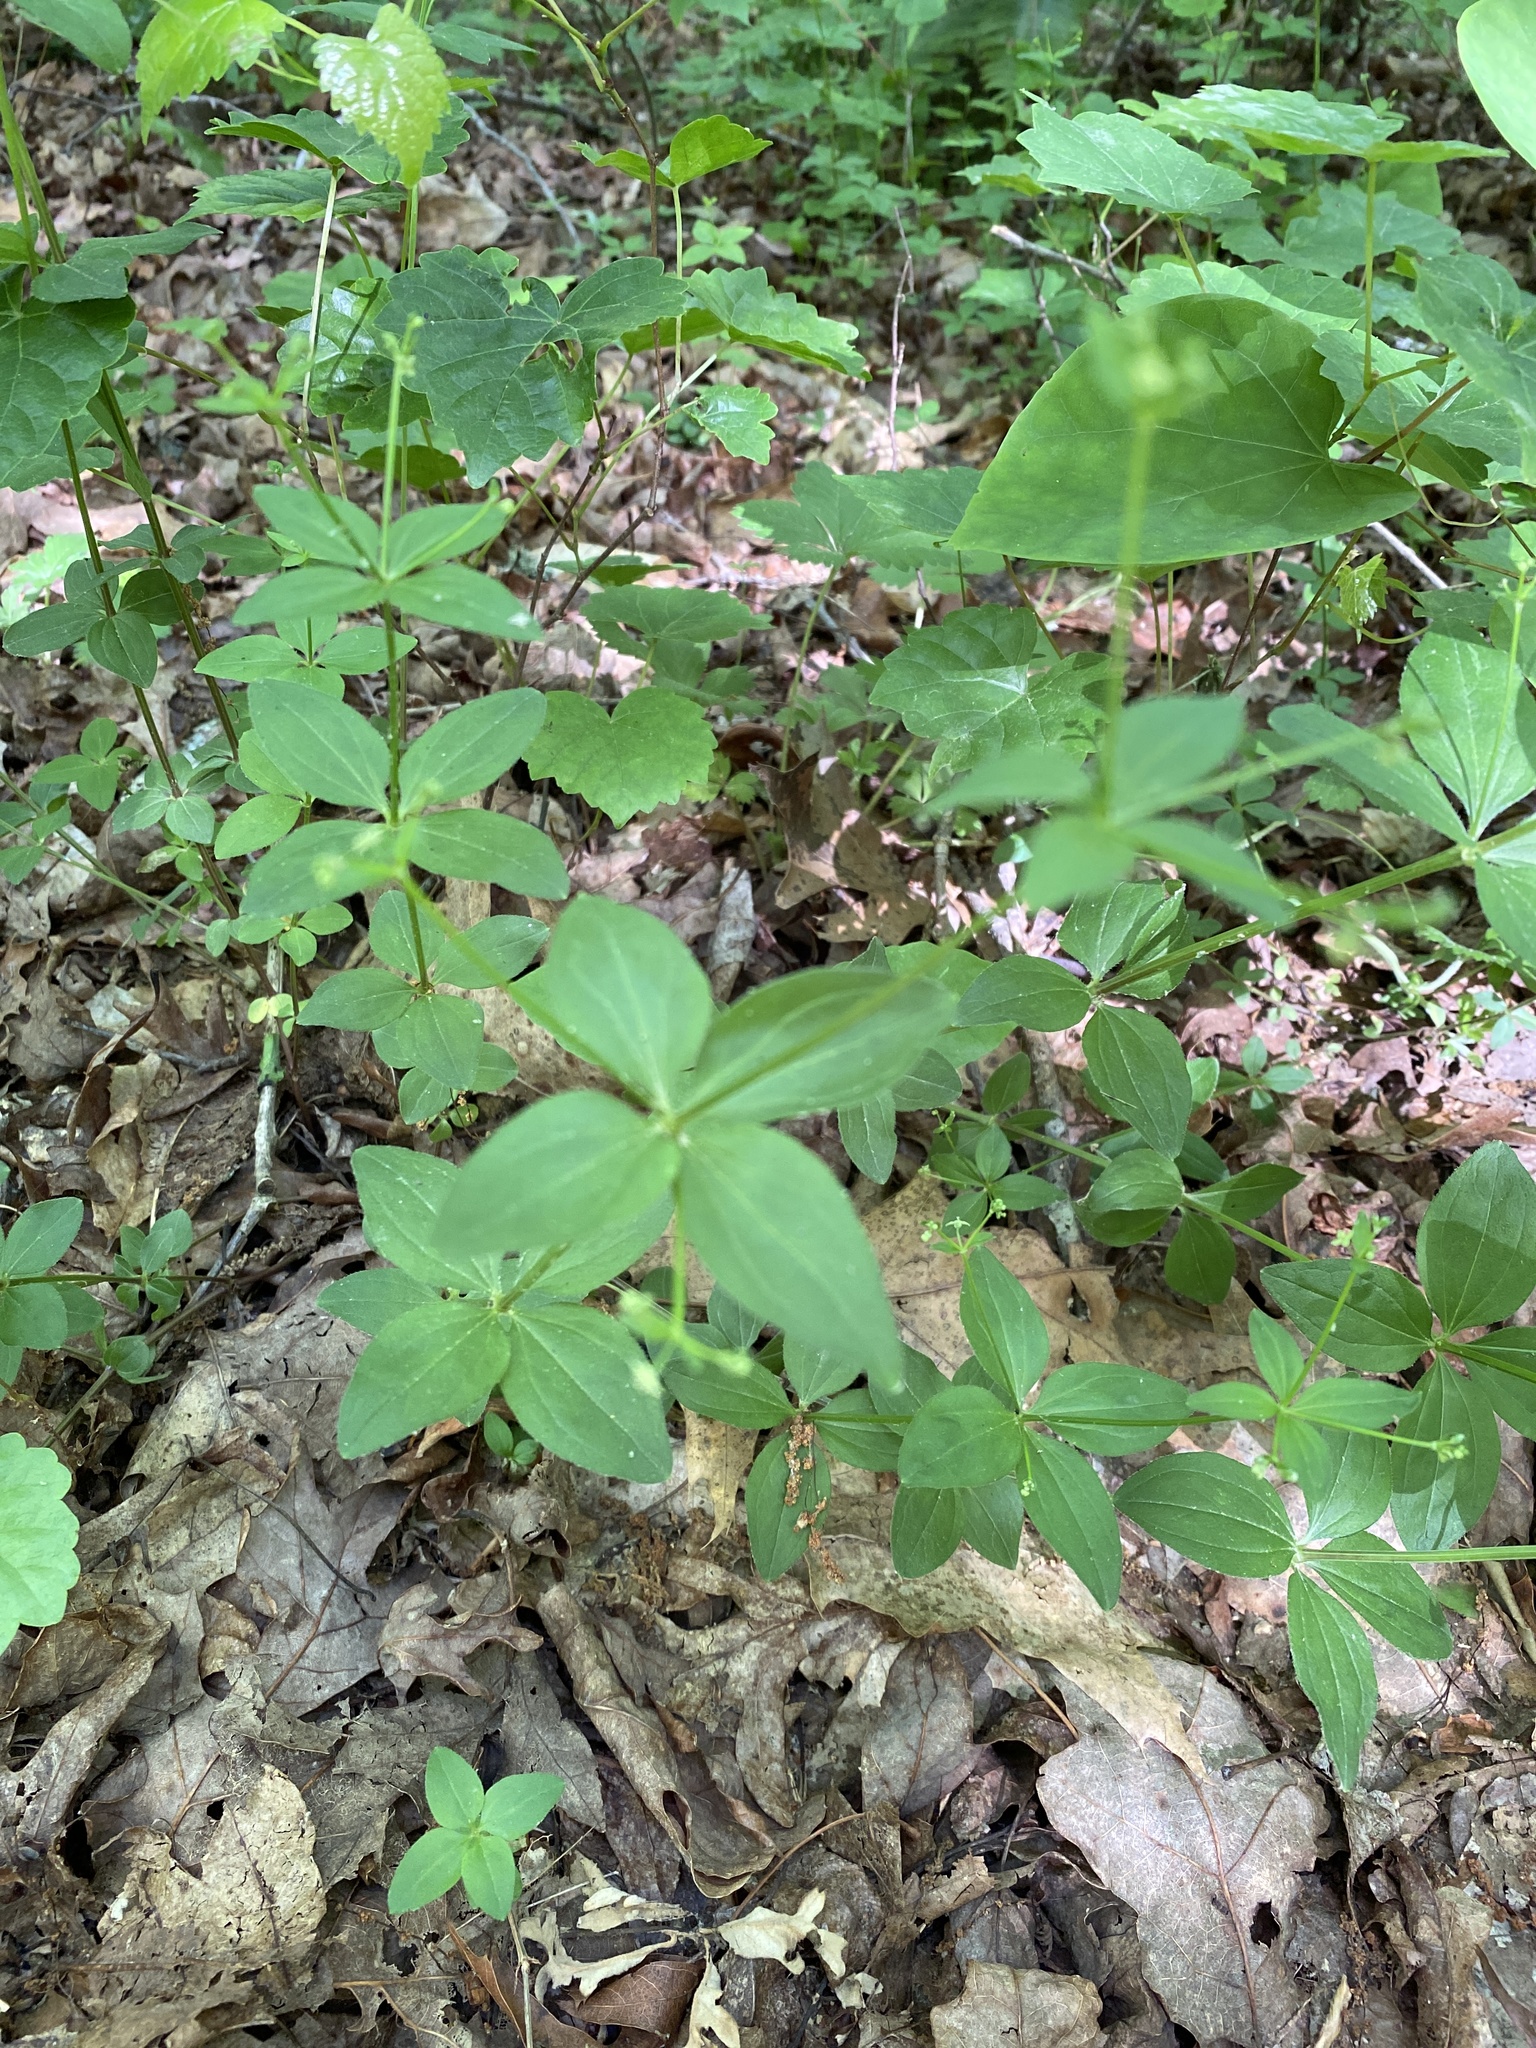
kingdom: Plantae
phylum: Tracheophyta
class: Magnoliopsida
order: Gentianales
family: Rubiaceae
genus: Galium
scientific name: Galium circaezans
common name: Forest bedstraw
